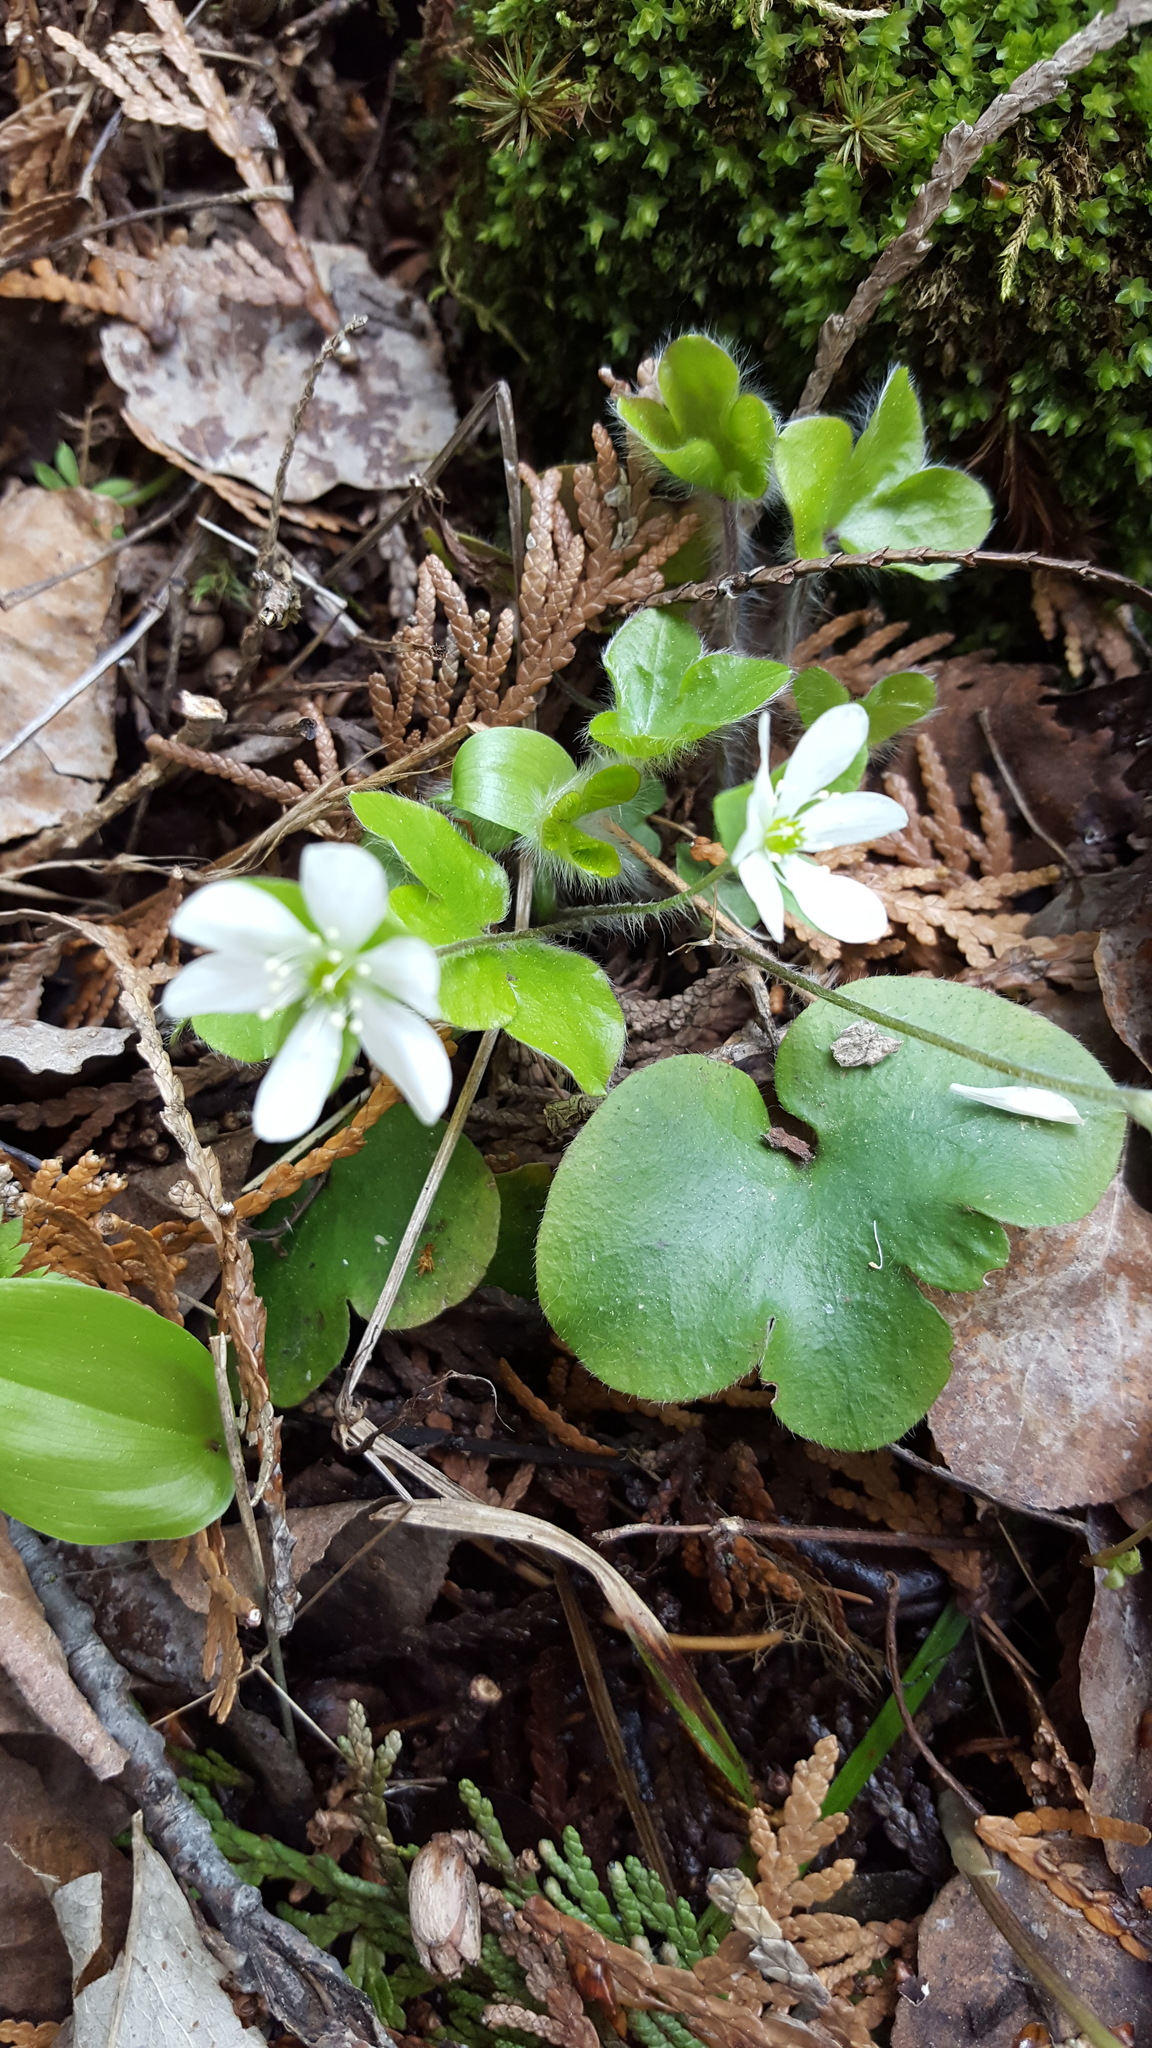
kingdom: Plantae
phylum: Tracheophyta
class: Magnoliopsida
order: Ranunculales
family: Ranunculaceae
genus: Hepatica
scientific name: Hepatica americana
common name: American hepatica
